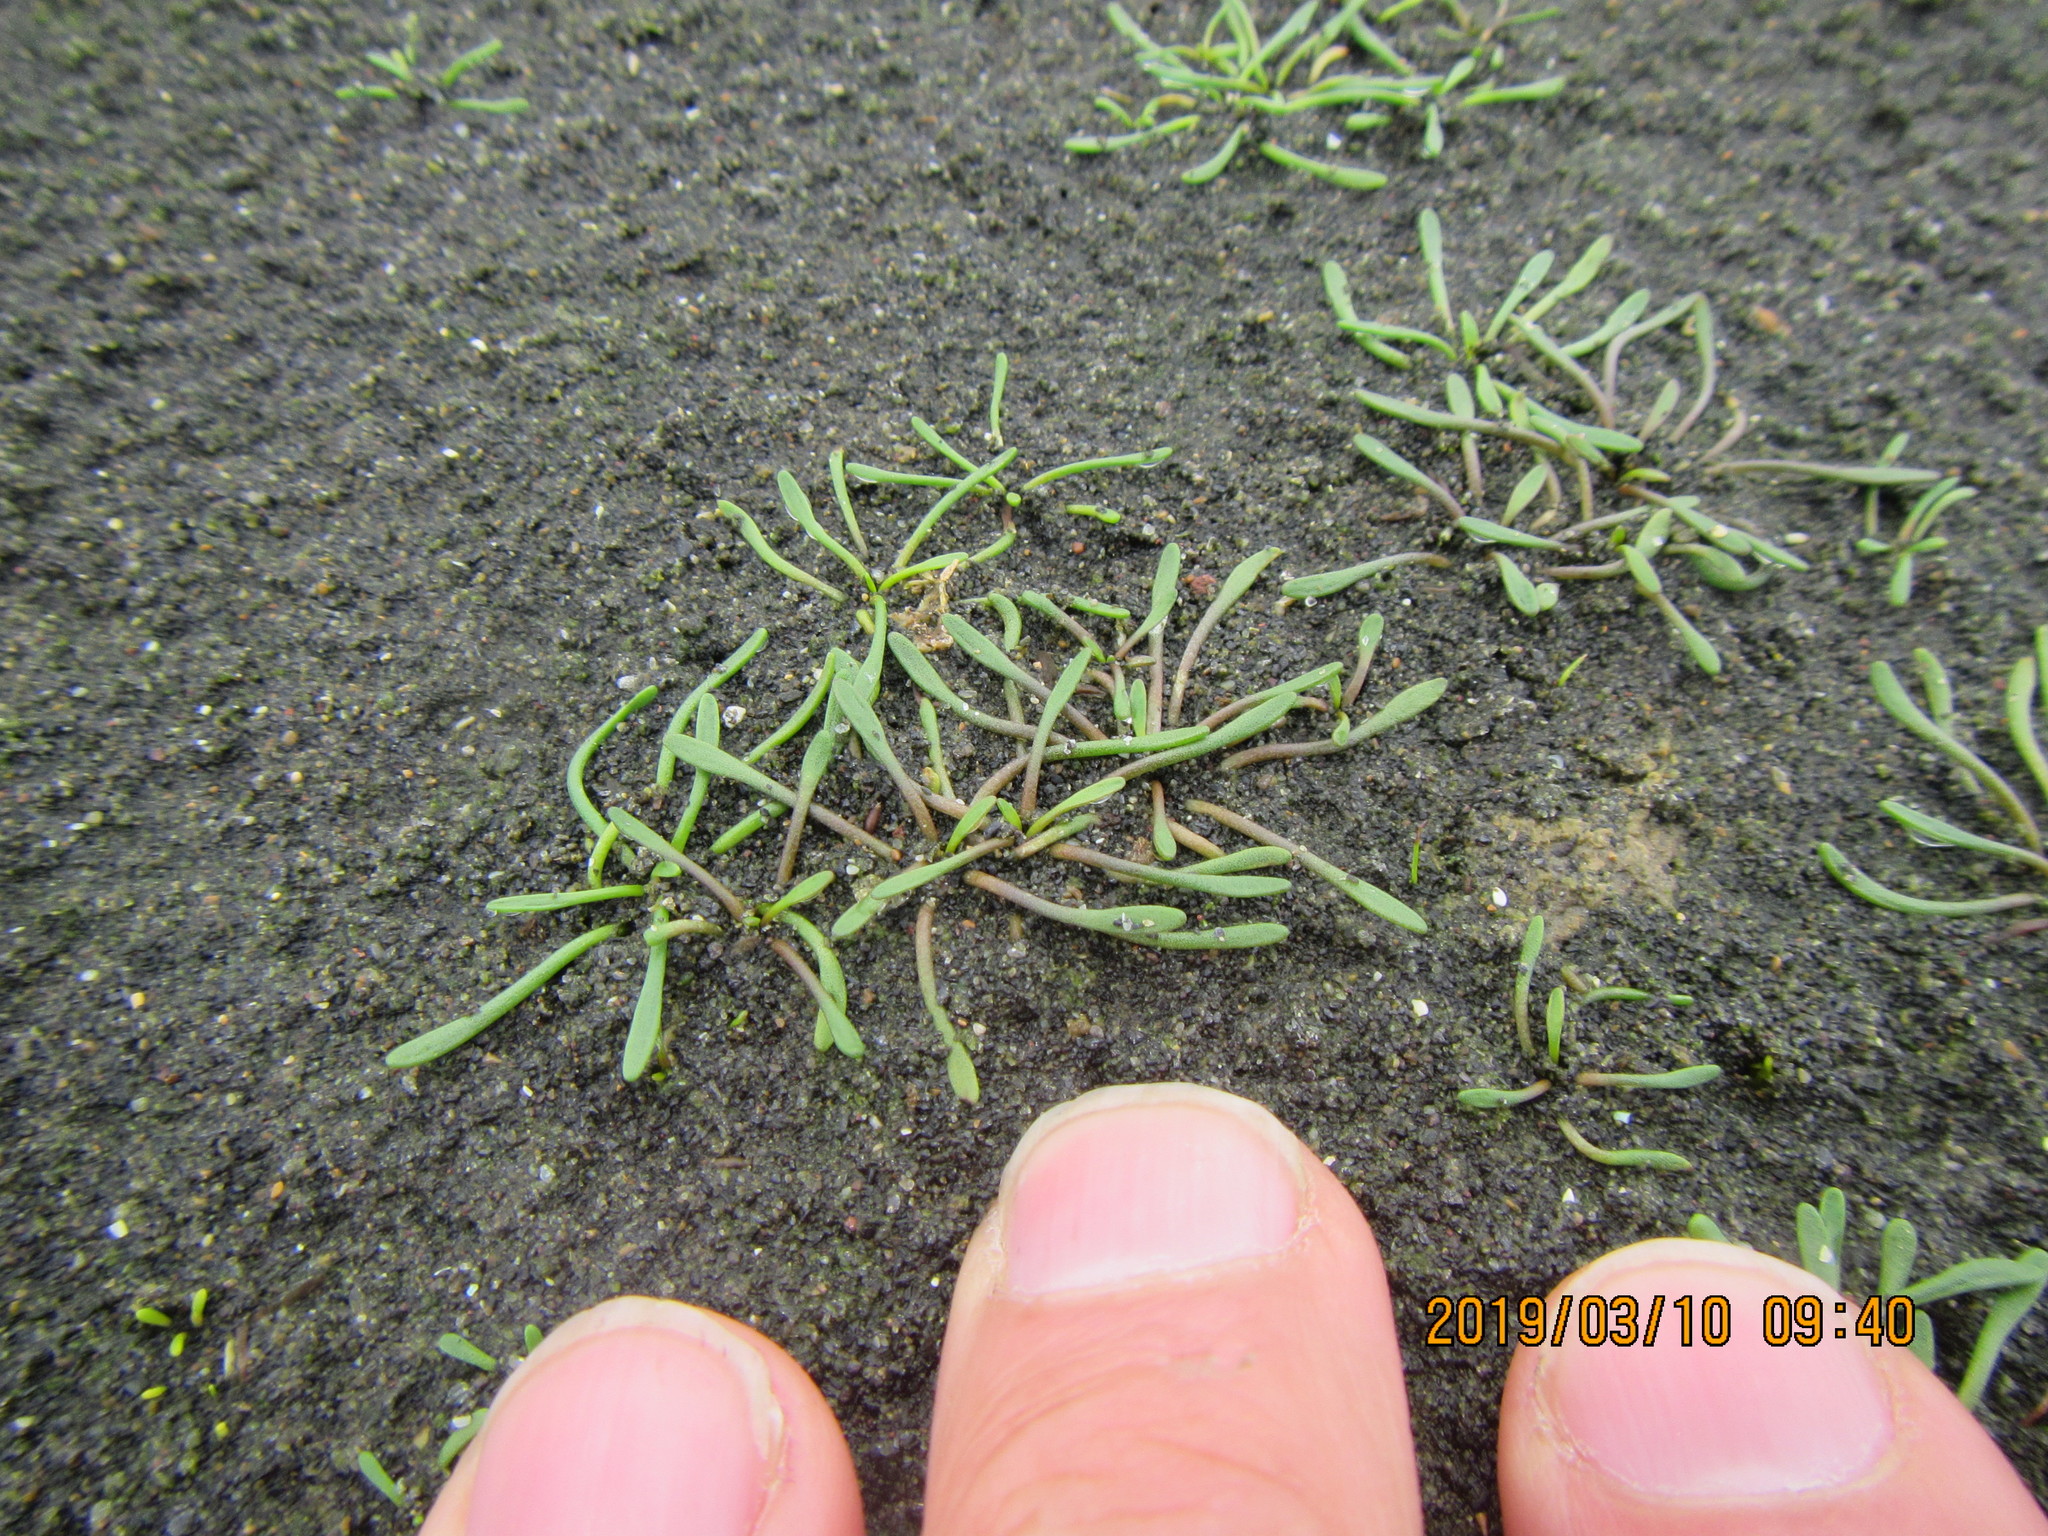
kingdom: Plantae
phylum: Tracheophyta
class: Magnoliopsida
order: Lamiales
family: Scrophulariaceae
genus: Limosella
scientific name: Limosella australis
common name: Welsh mudwort
